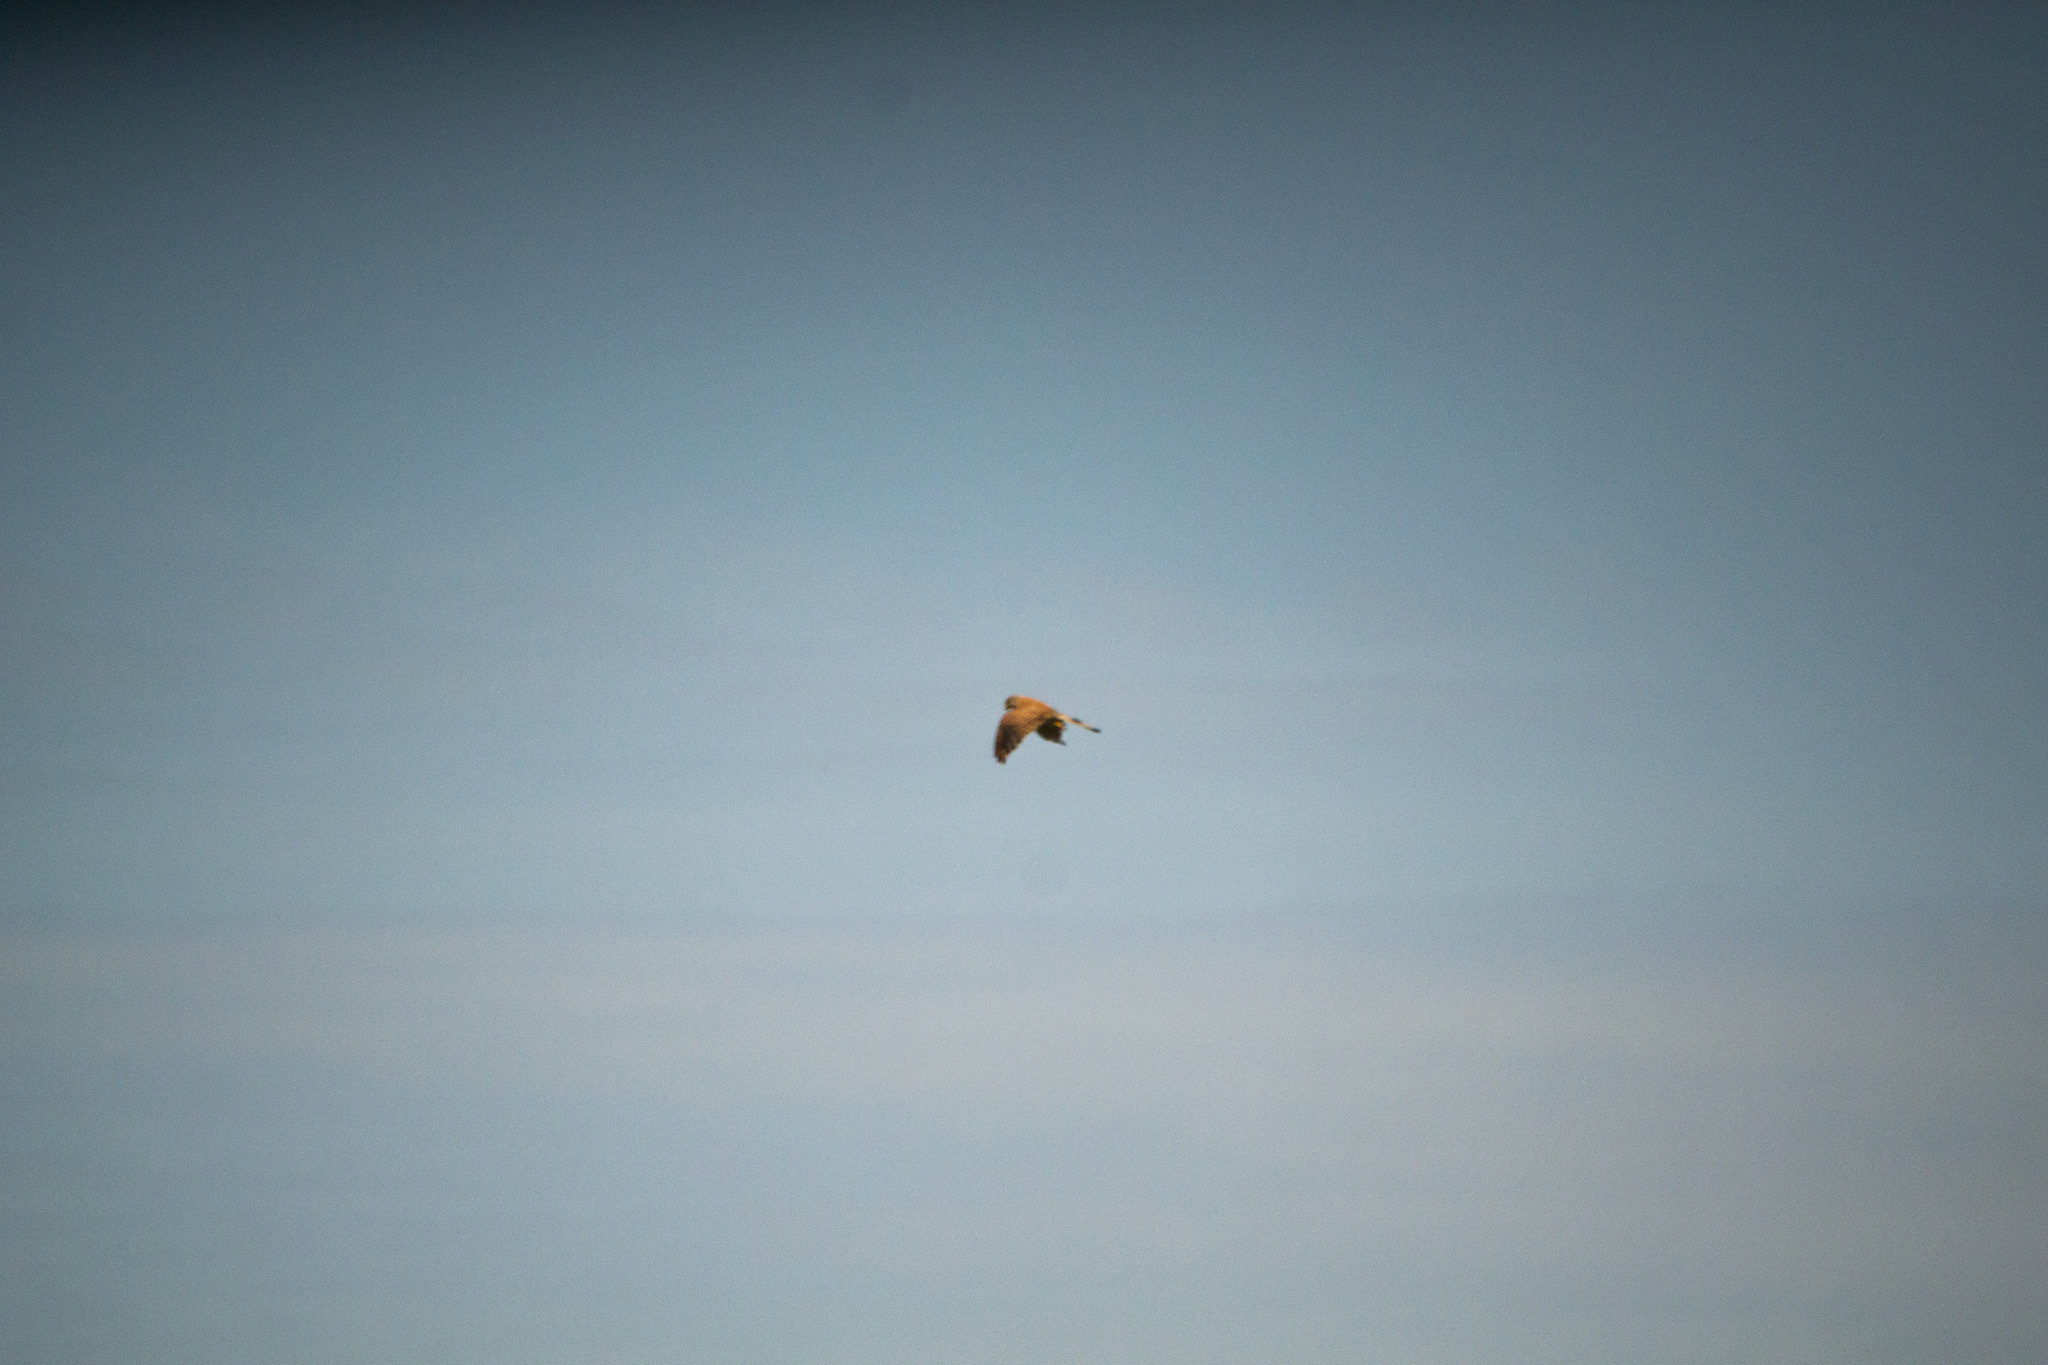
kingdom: Animalia
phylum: Chordata
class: Aves
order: Falconiformes
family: Falconidae
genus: Falco
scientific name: Falco tinnunculus
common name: Common kestrel
